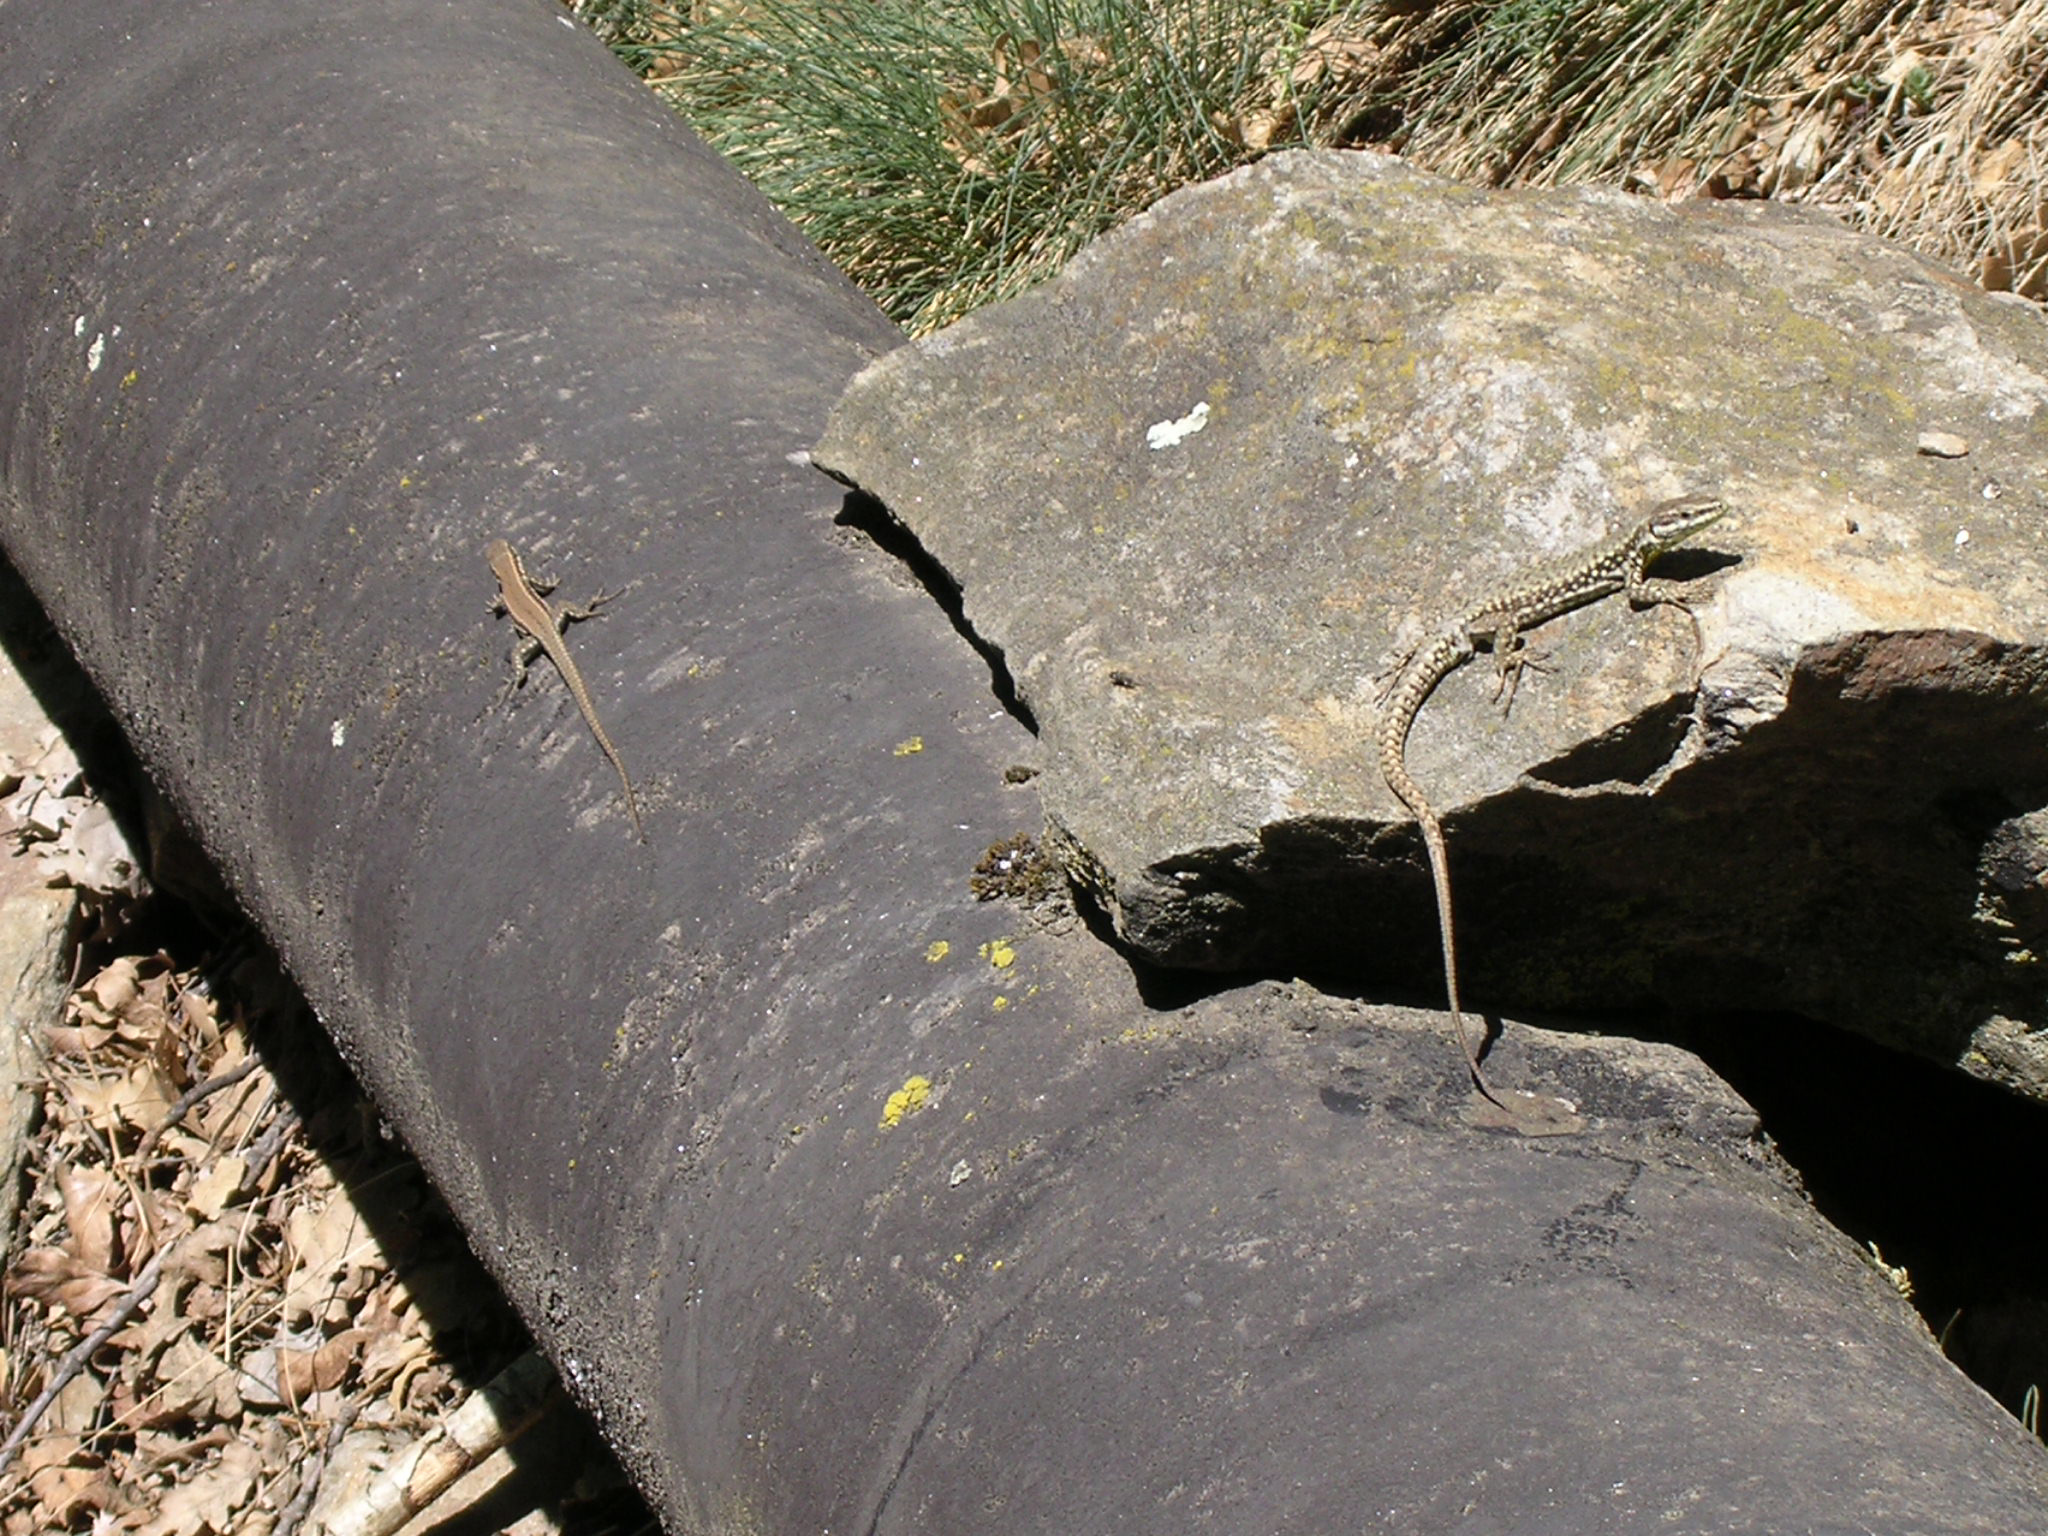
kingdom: Animalia
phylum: Chordata
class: Squamata
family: Lacertidae
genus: Podarcis
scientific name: Podarcis muralis
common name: Common wall lizard
